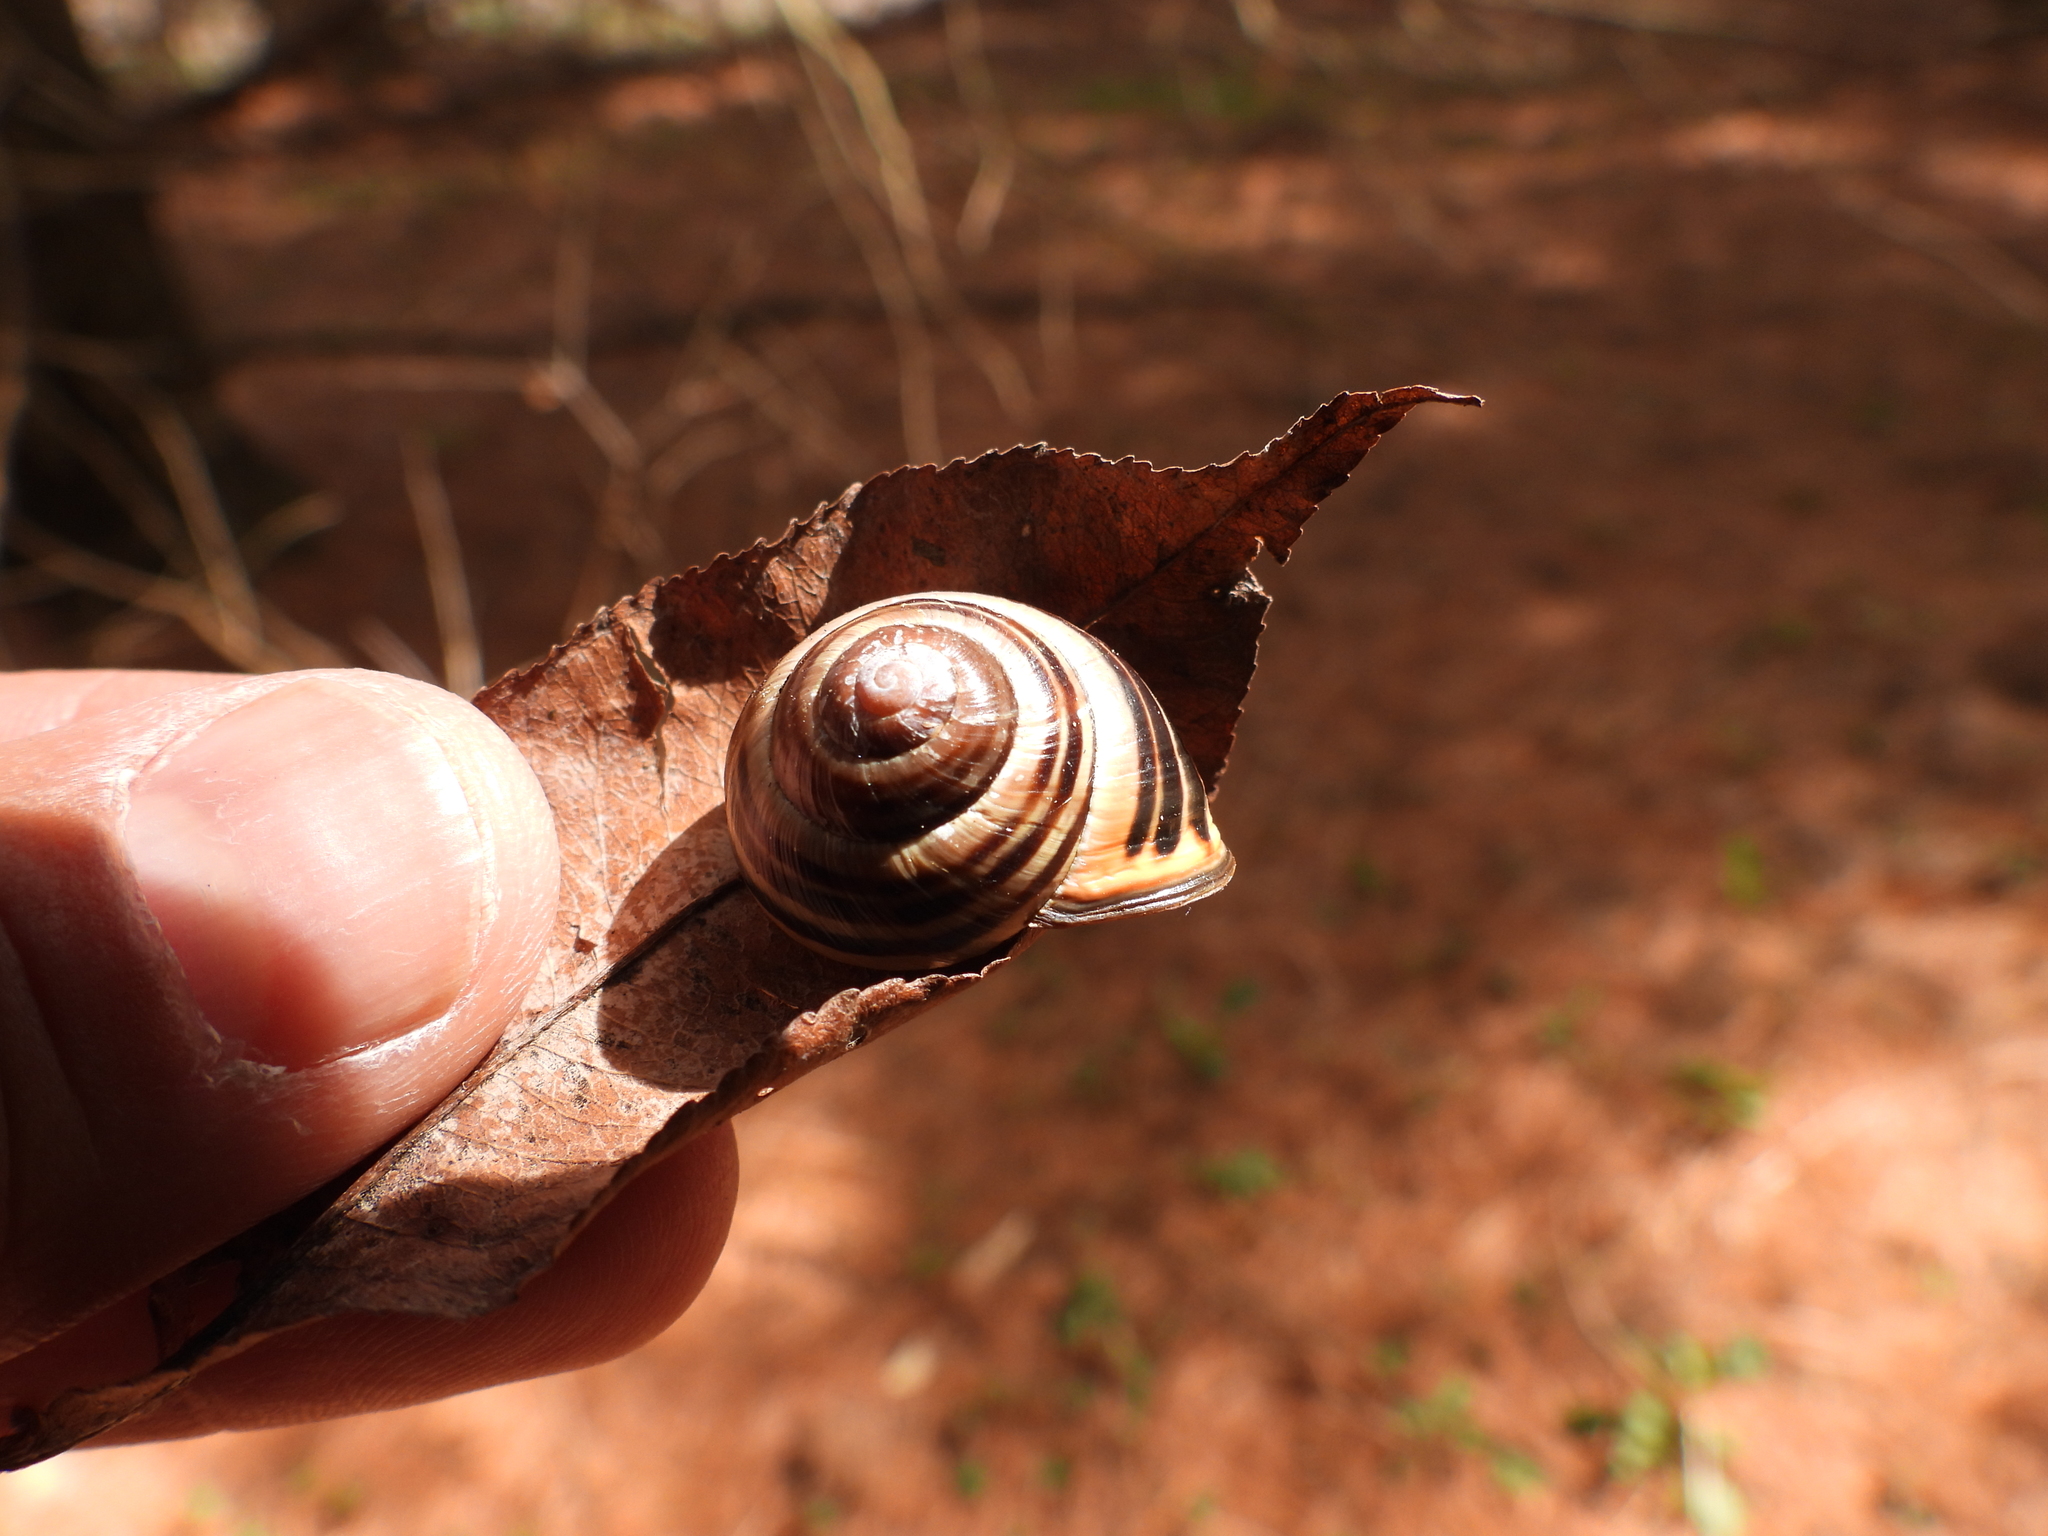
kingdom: Animalia
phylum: Mollusca
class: Gastropoda
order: Stylommatophora
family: Helicidae
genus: Cepaea
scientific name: Cepaea nemoralis
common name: Grovesnail
